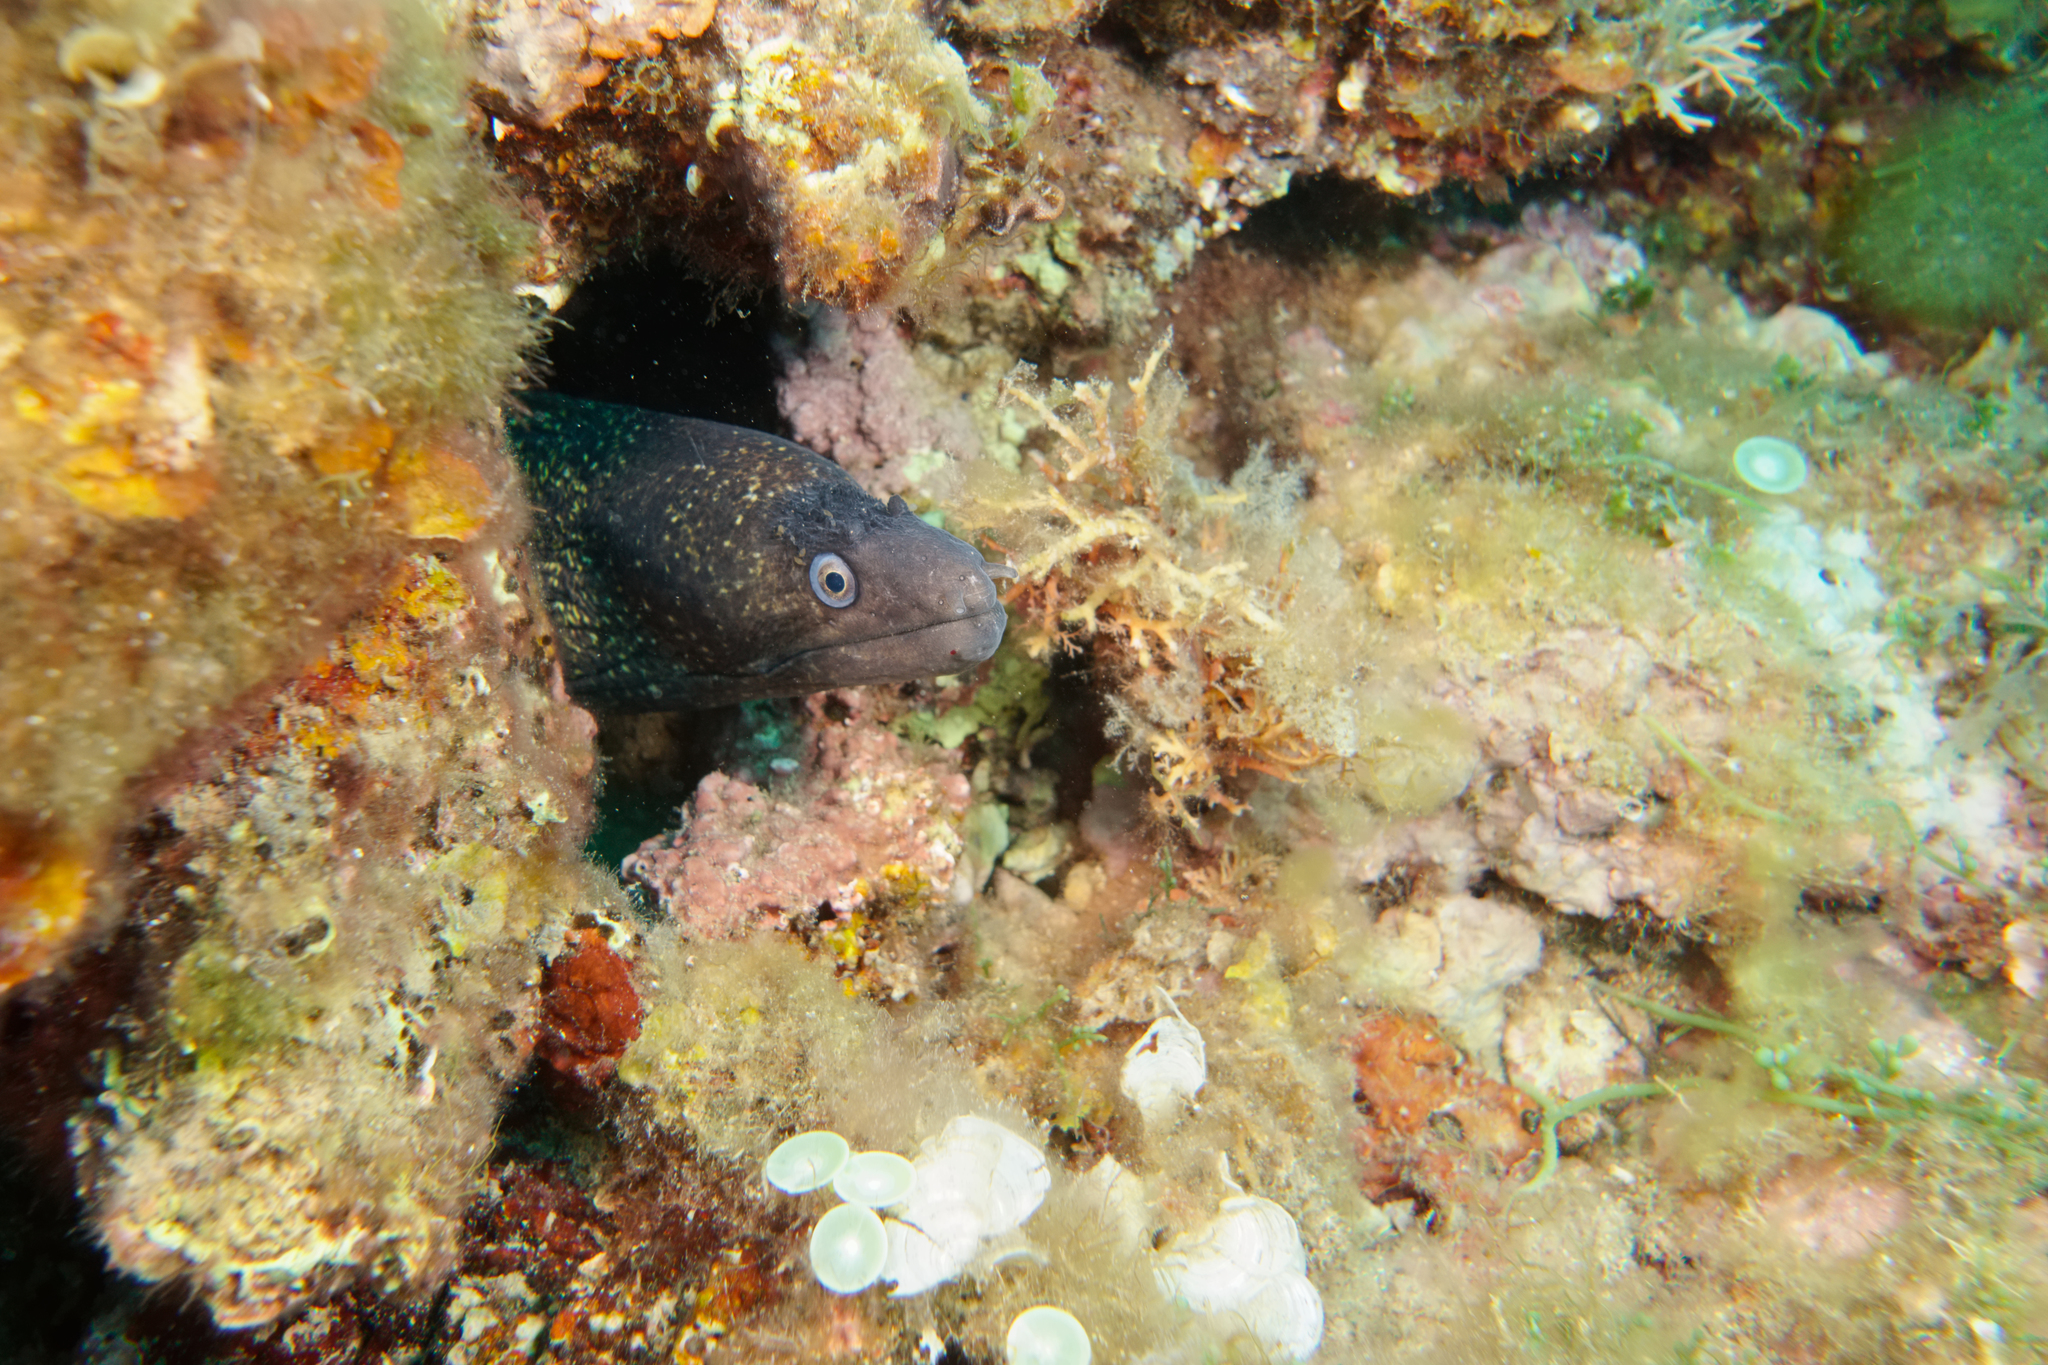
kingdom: Animalia
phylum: Chordata
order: Anguilliformes
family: Muraenidae
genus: Muraena
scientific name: Muraena helena
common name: Mediterranean moray
